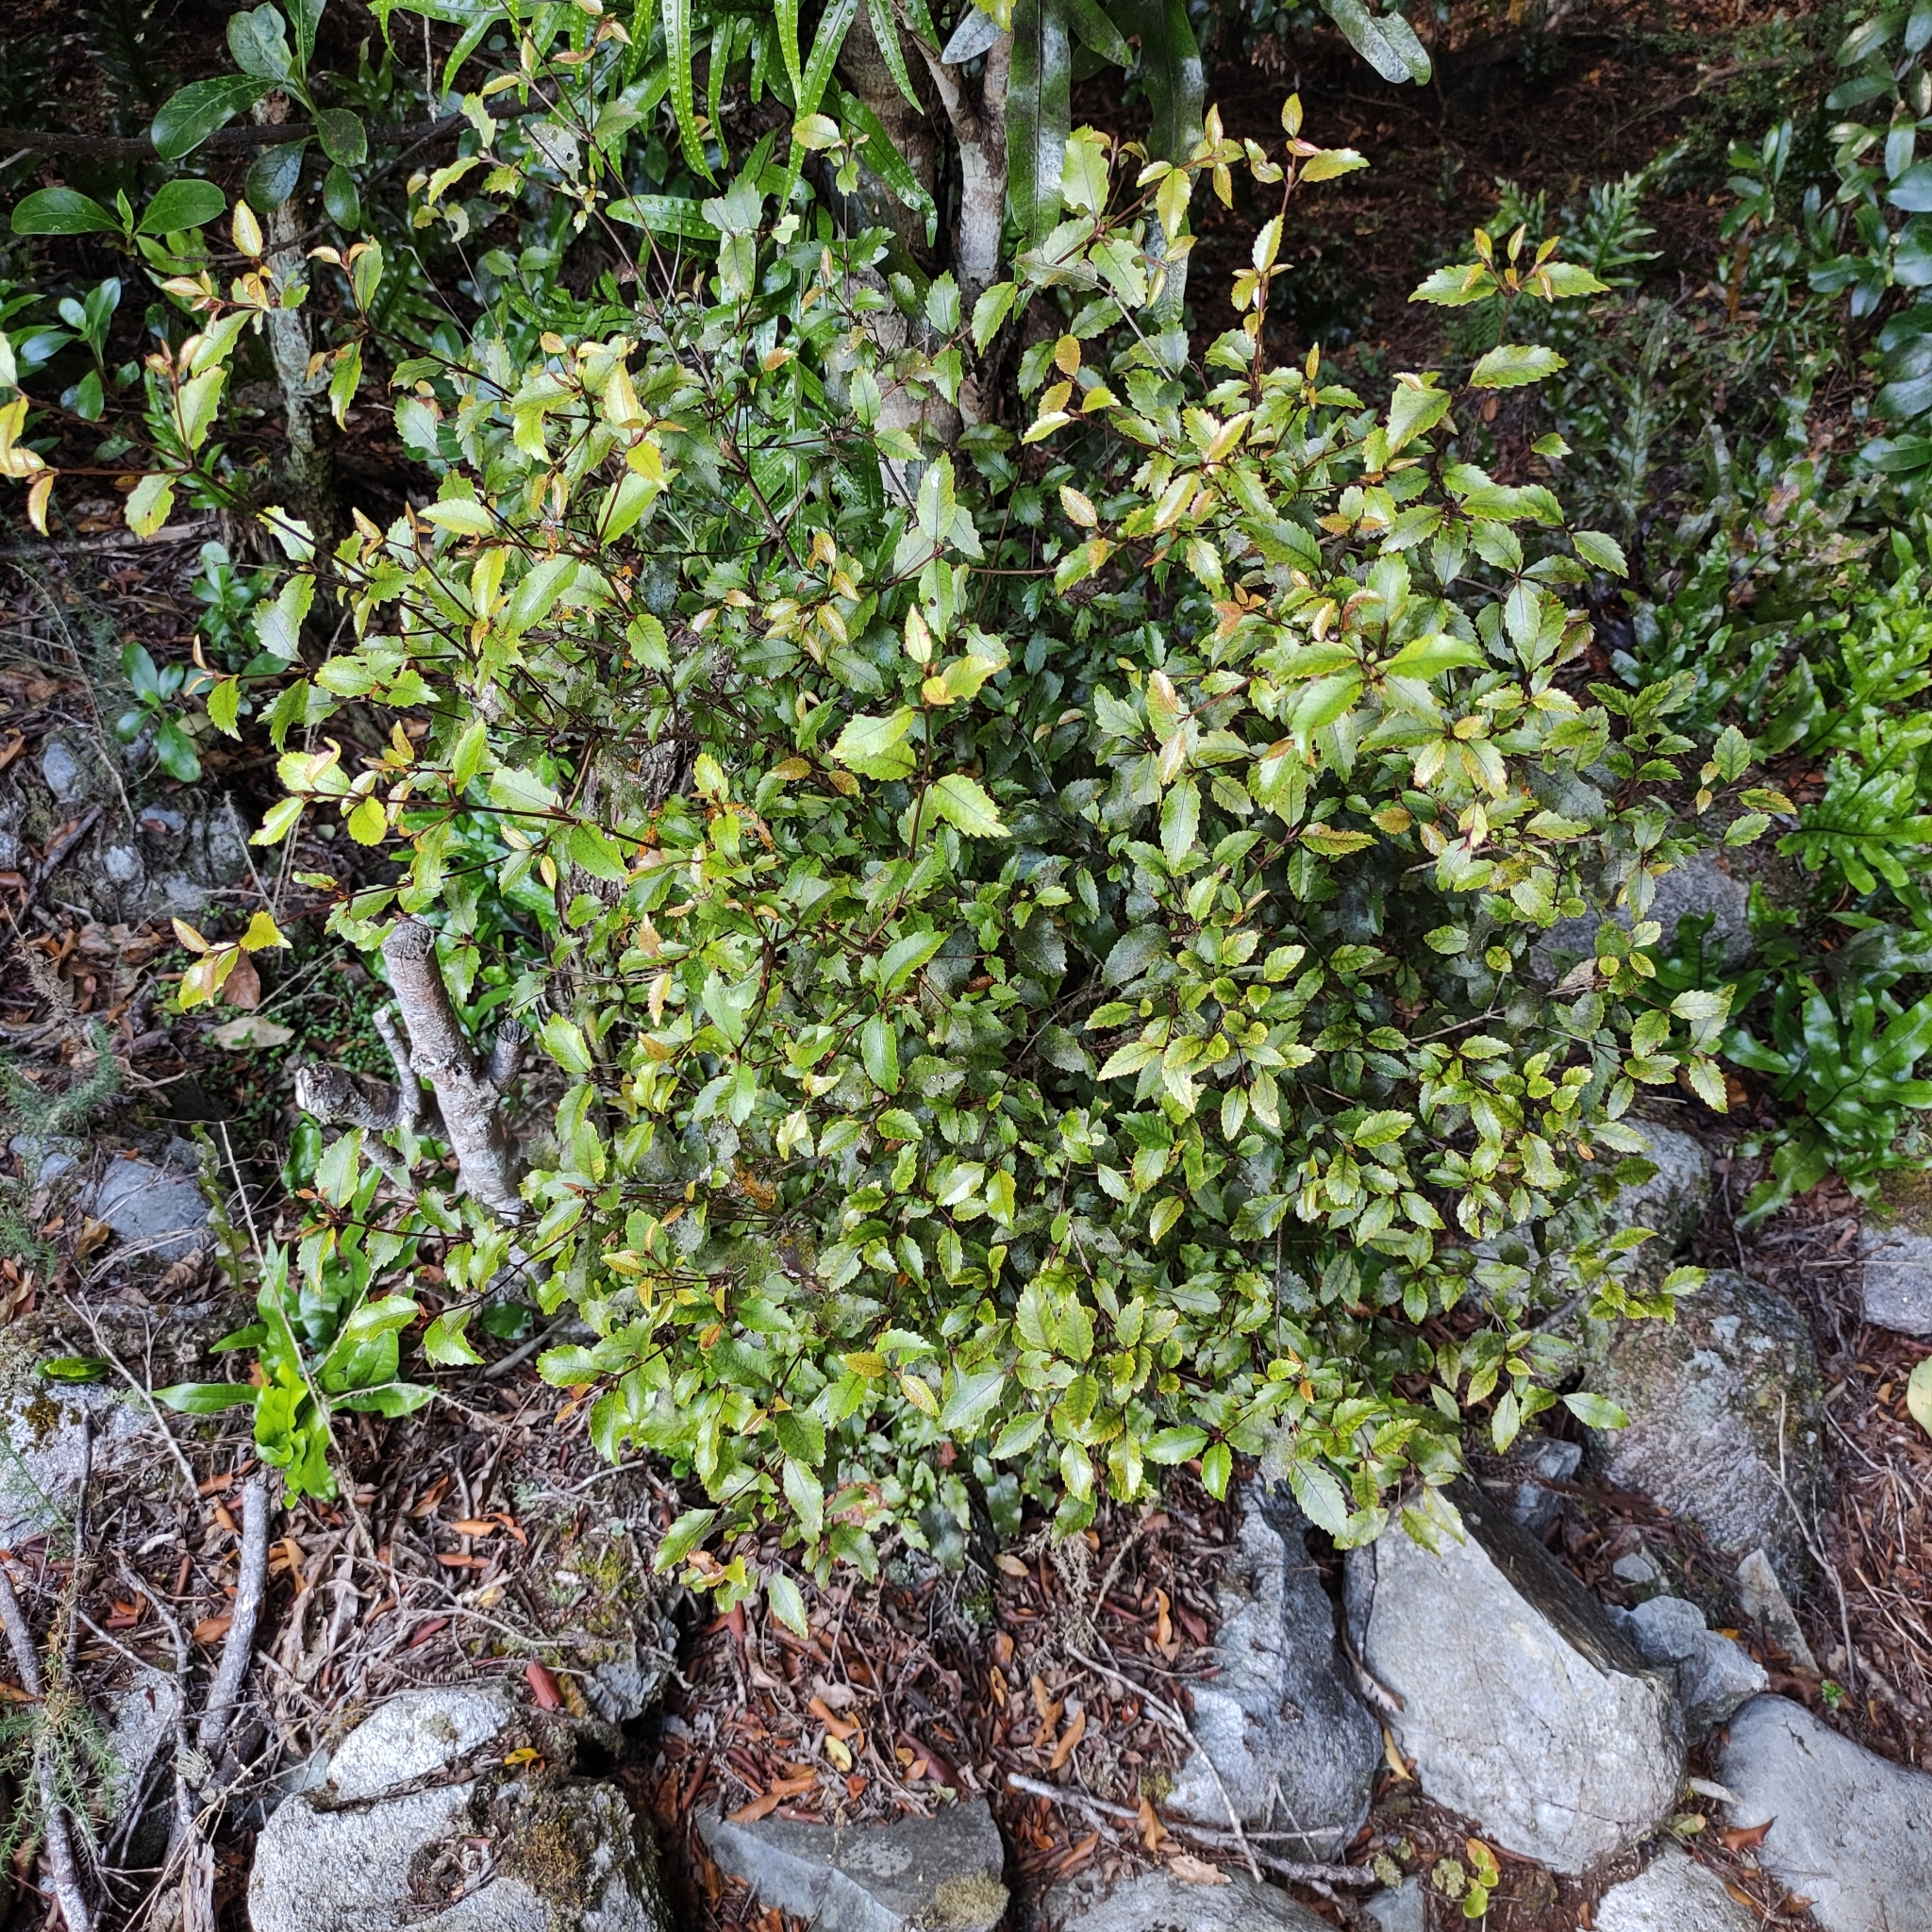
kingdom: Plantae
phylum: Tracheophyta
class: Magnoliopsida
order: Oxalidales
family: Cunoniaceae
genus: Pterophylla
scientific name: Pterophylla racemosa
